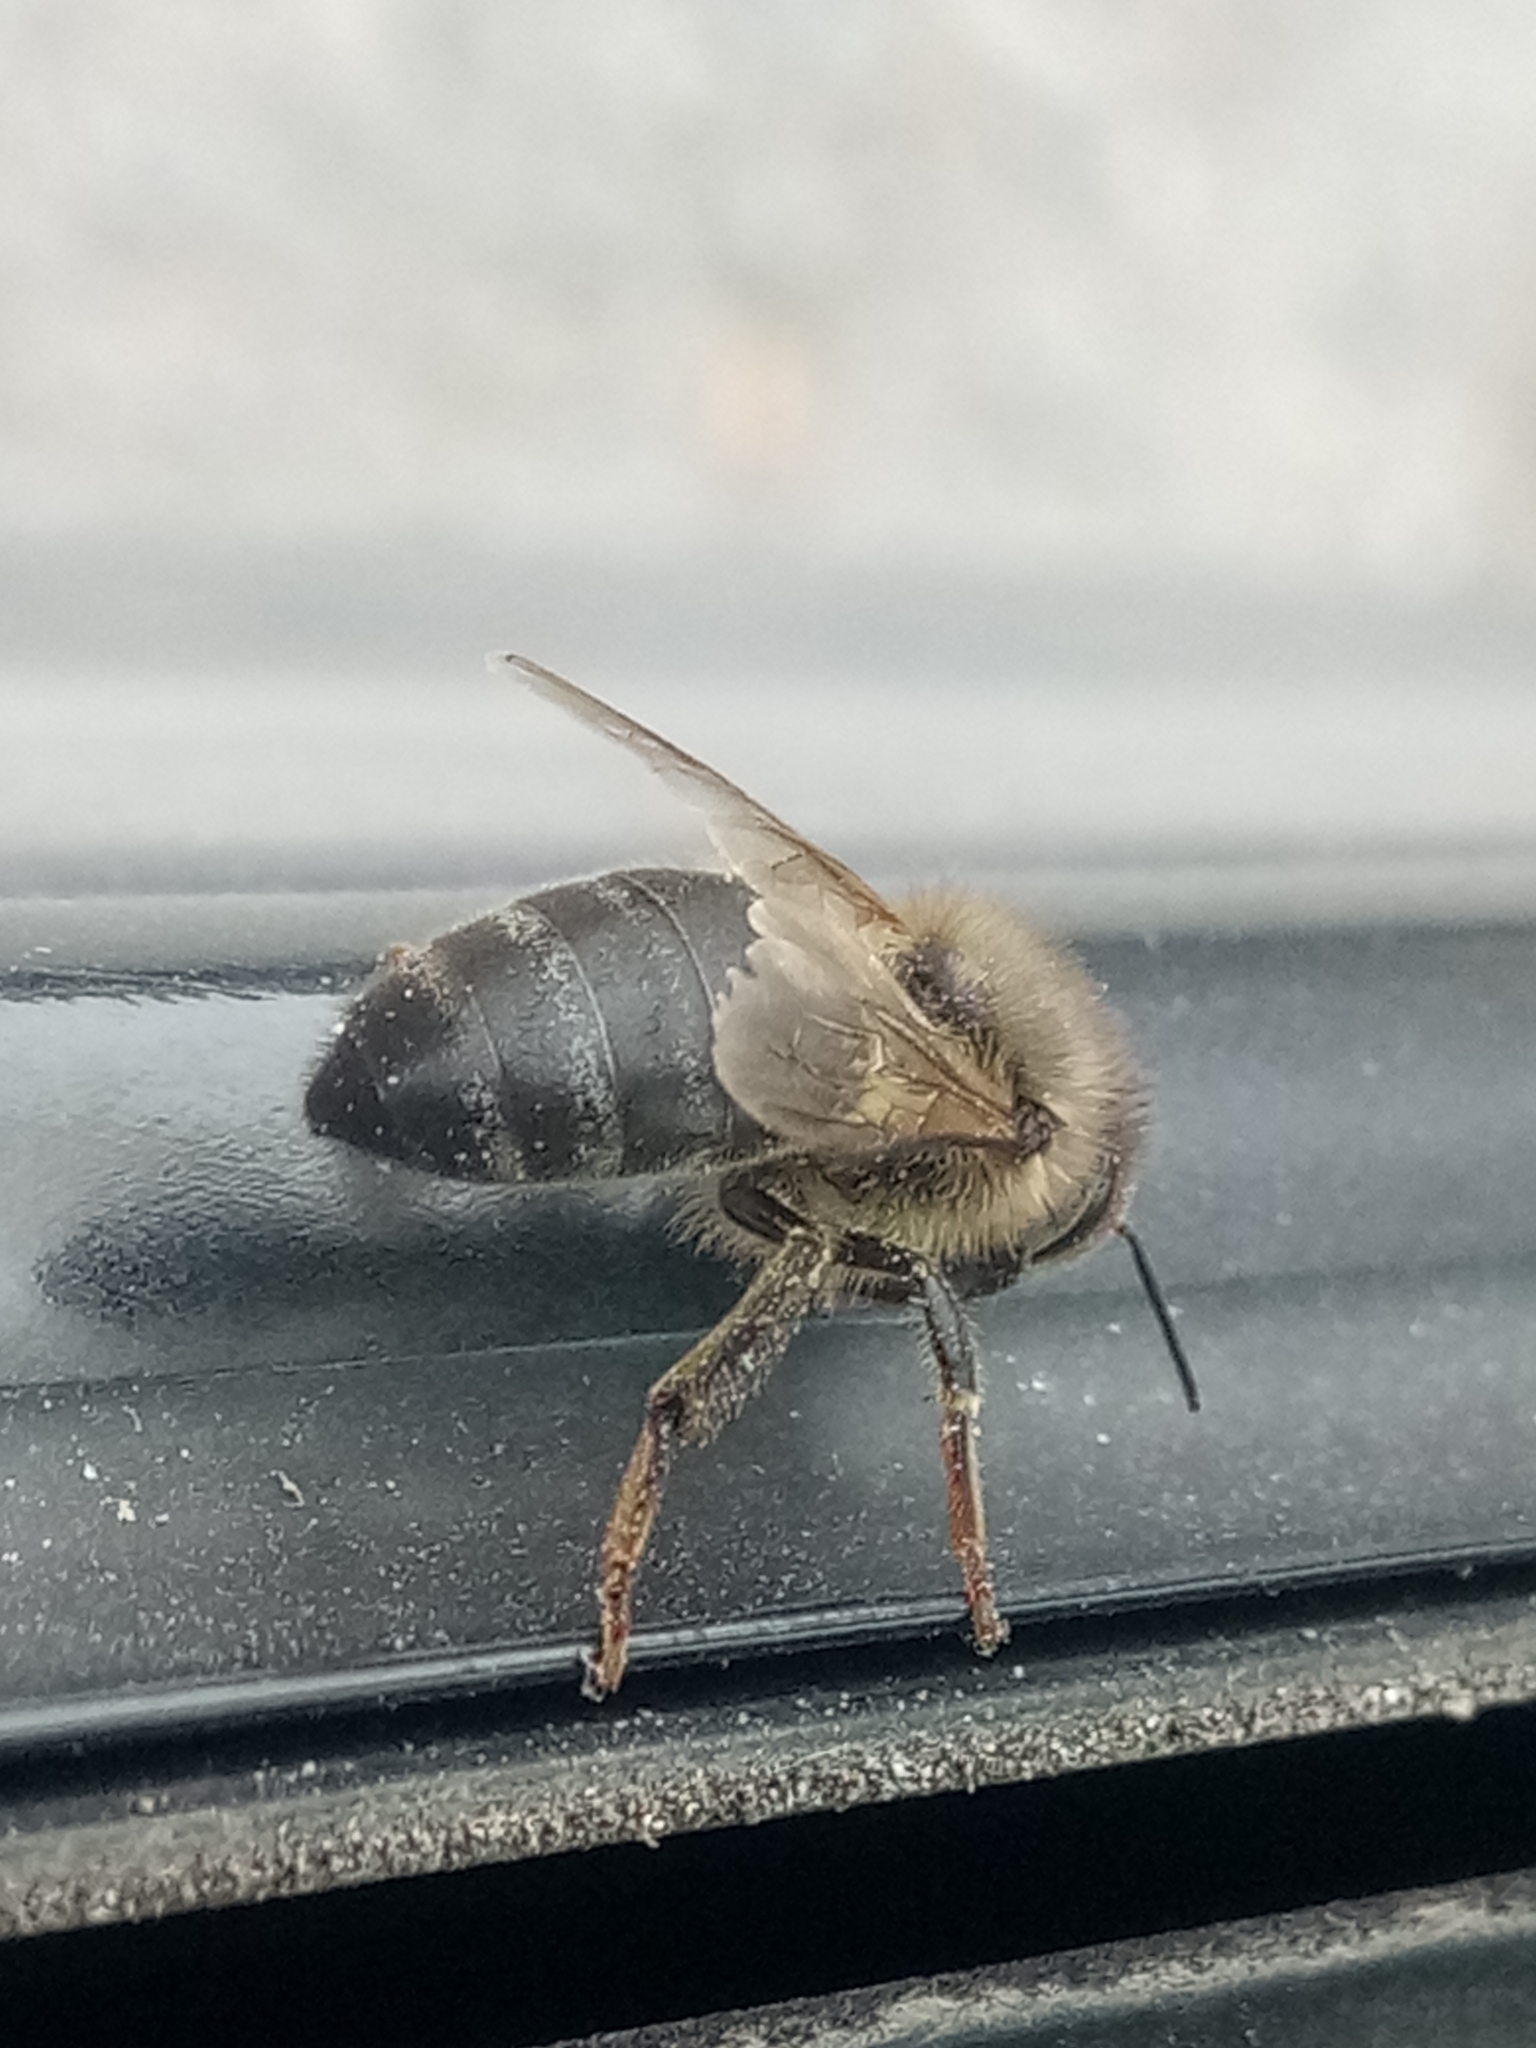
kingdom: Animalia
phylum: Arthropoda
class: Insecta
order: Hymenoptera
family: Apidae
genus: Apis
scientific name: Apis mellifera
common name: Honey bee
